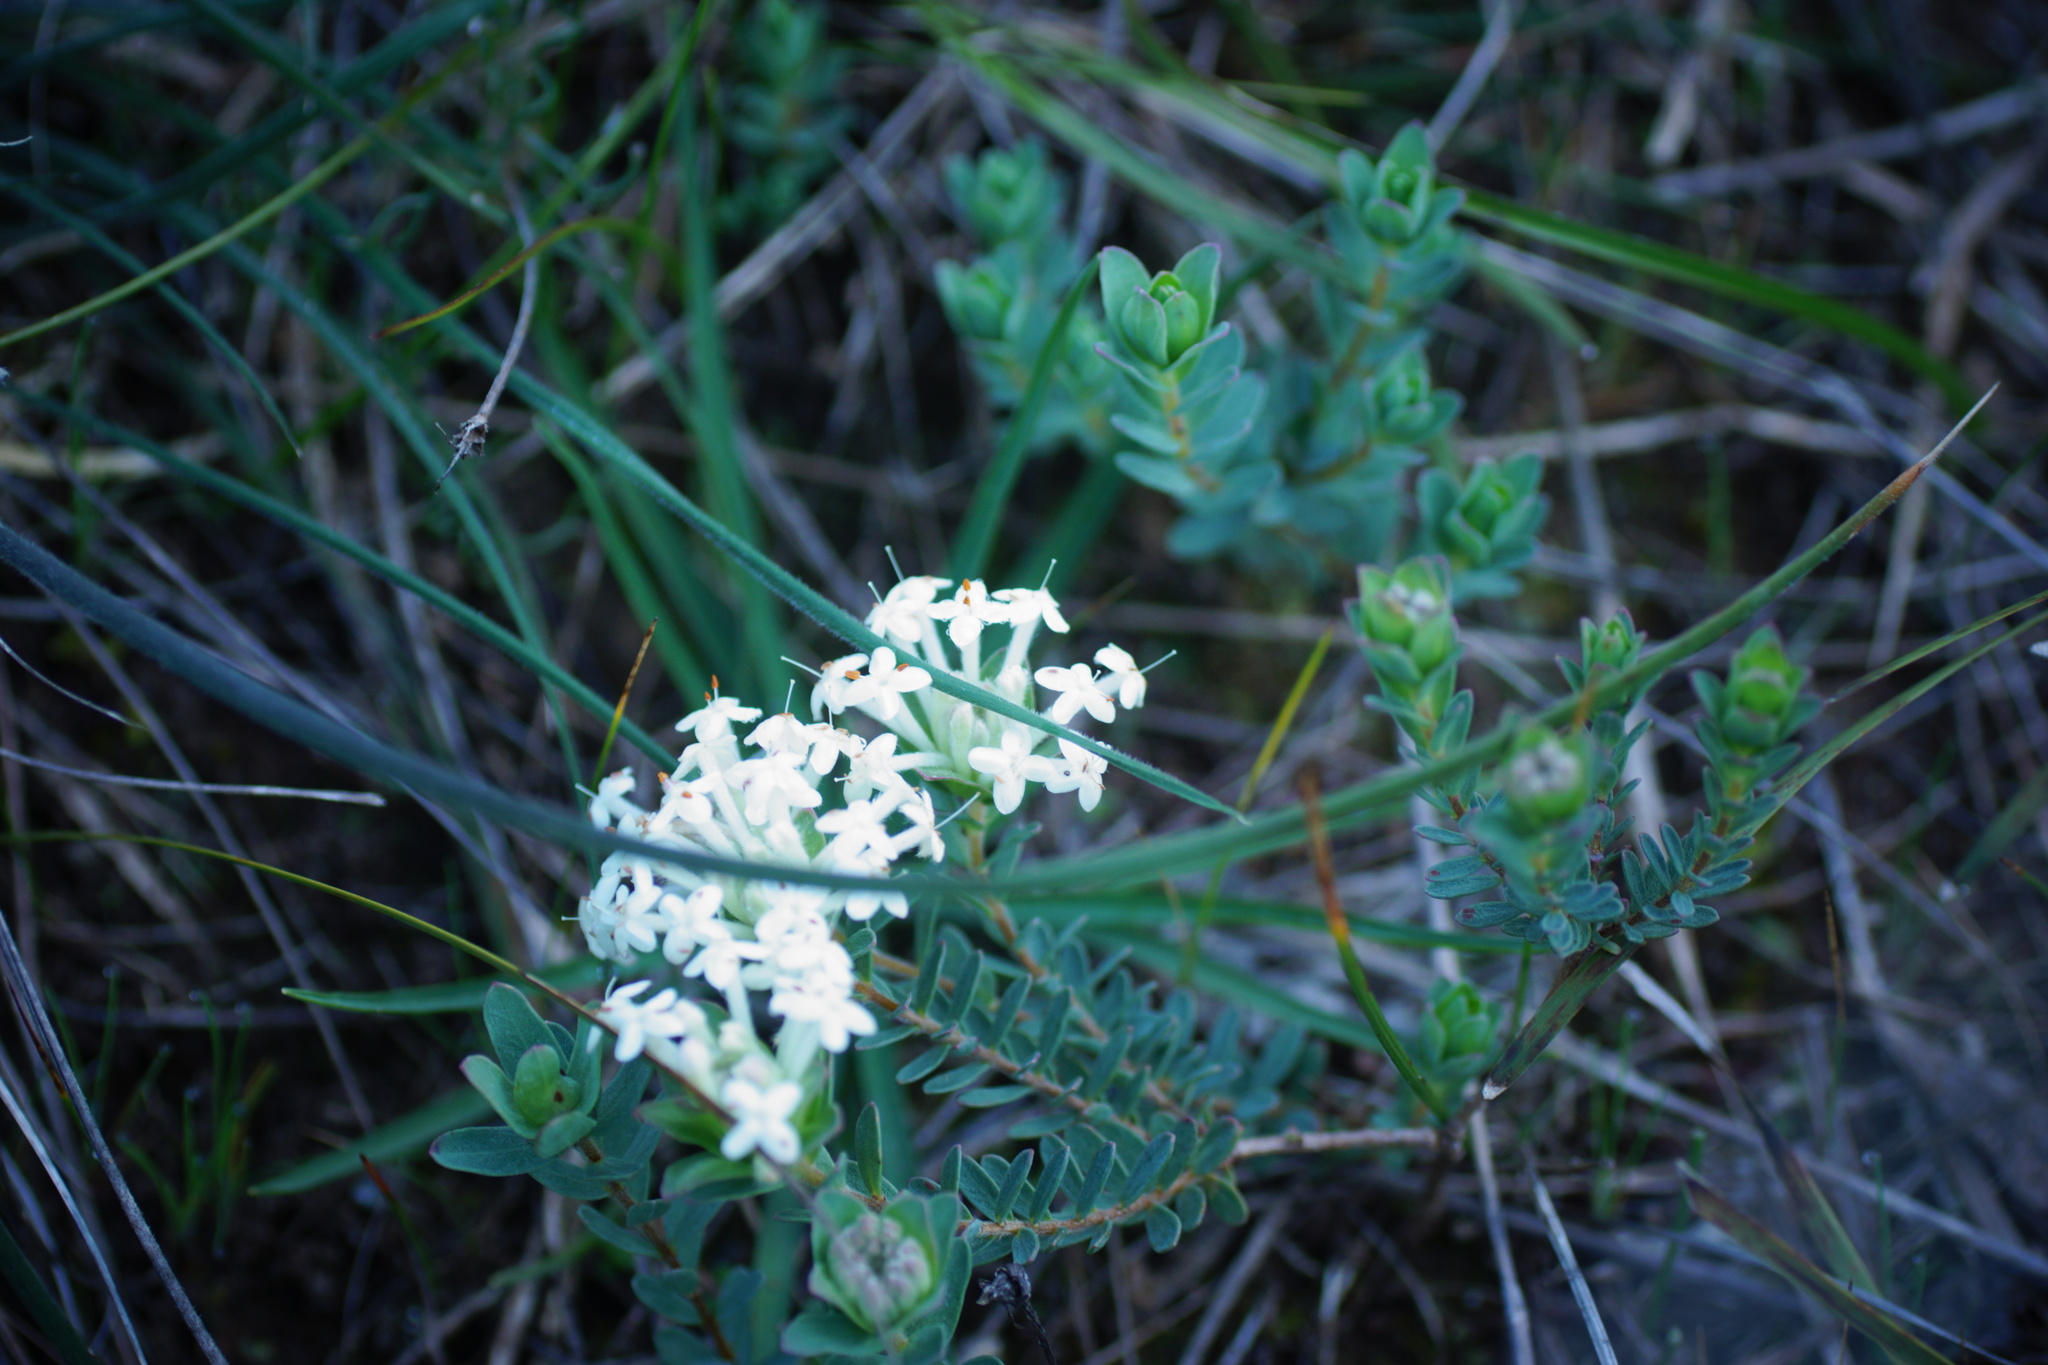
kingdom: Plantae
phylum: Tracheophyta
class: Magnoliopsida
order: Malvales
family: Thymelaeaceae
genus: Pimelea
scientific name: Pimelea humilis
